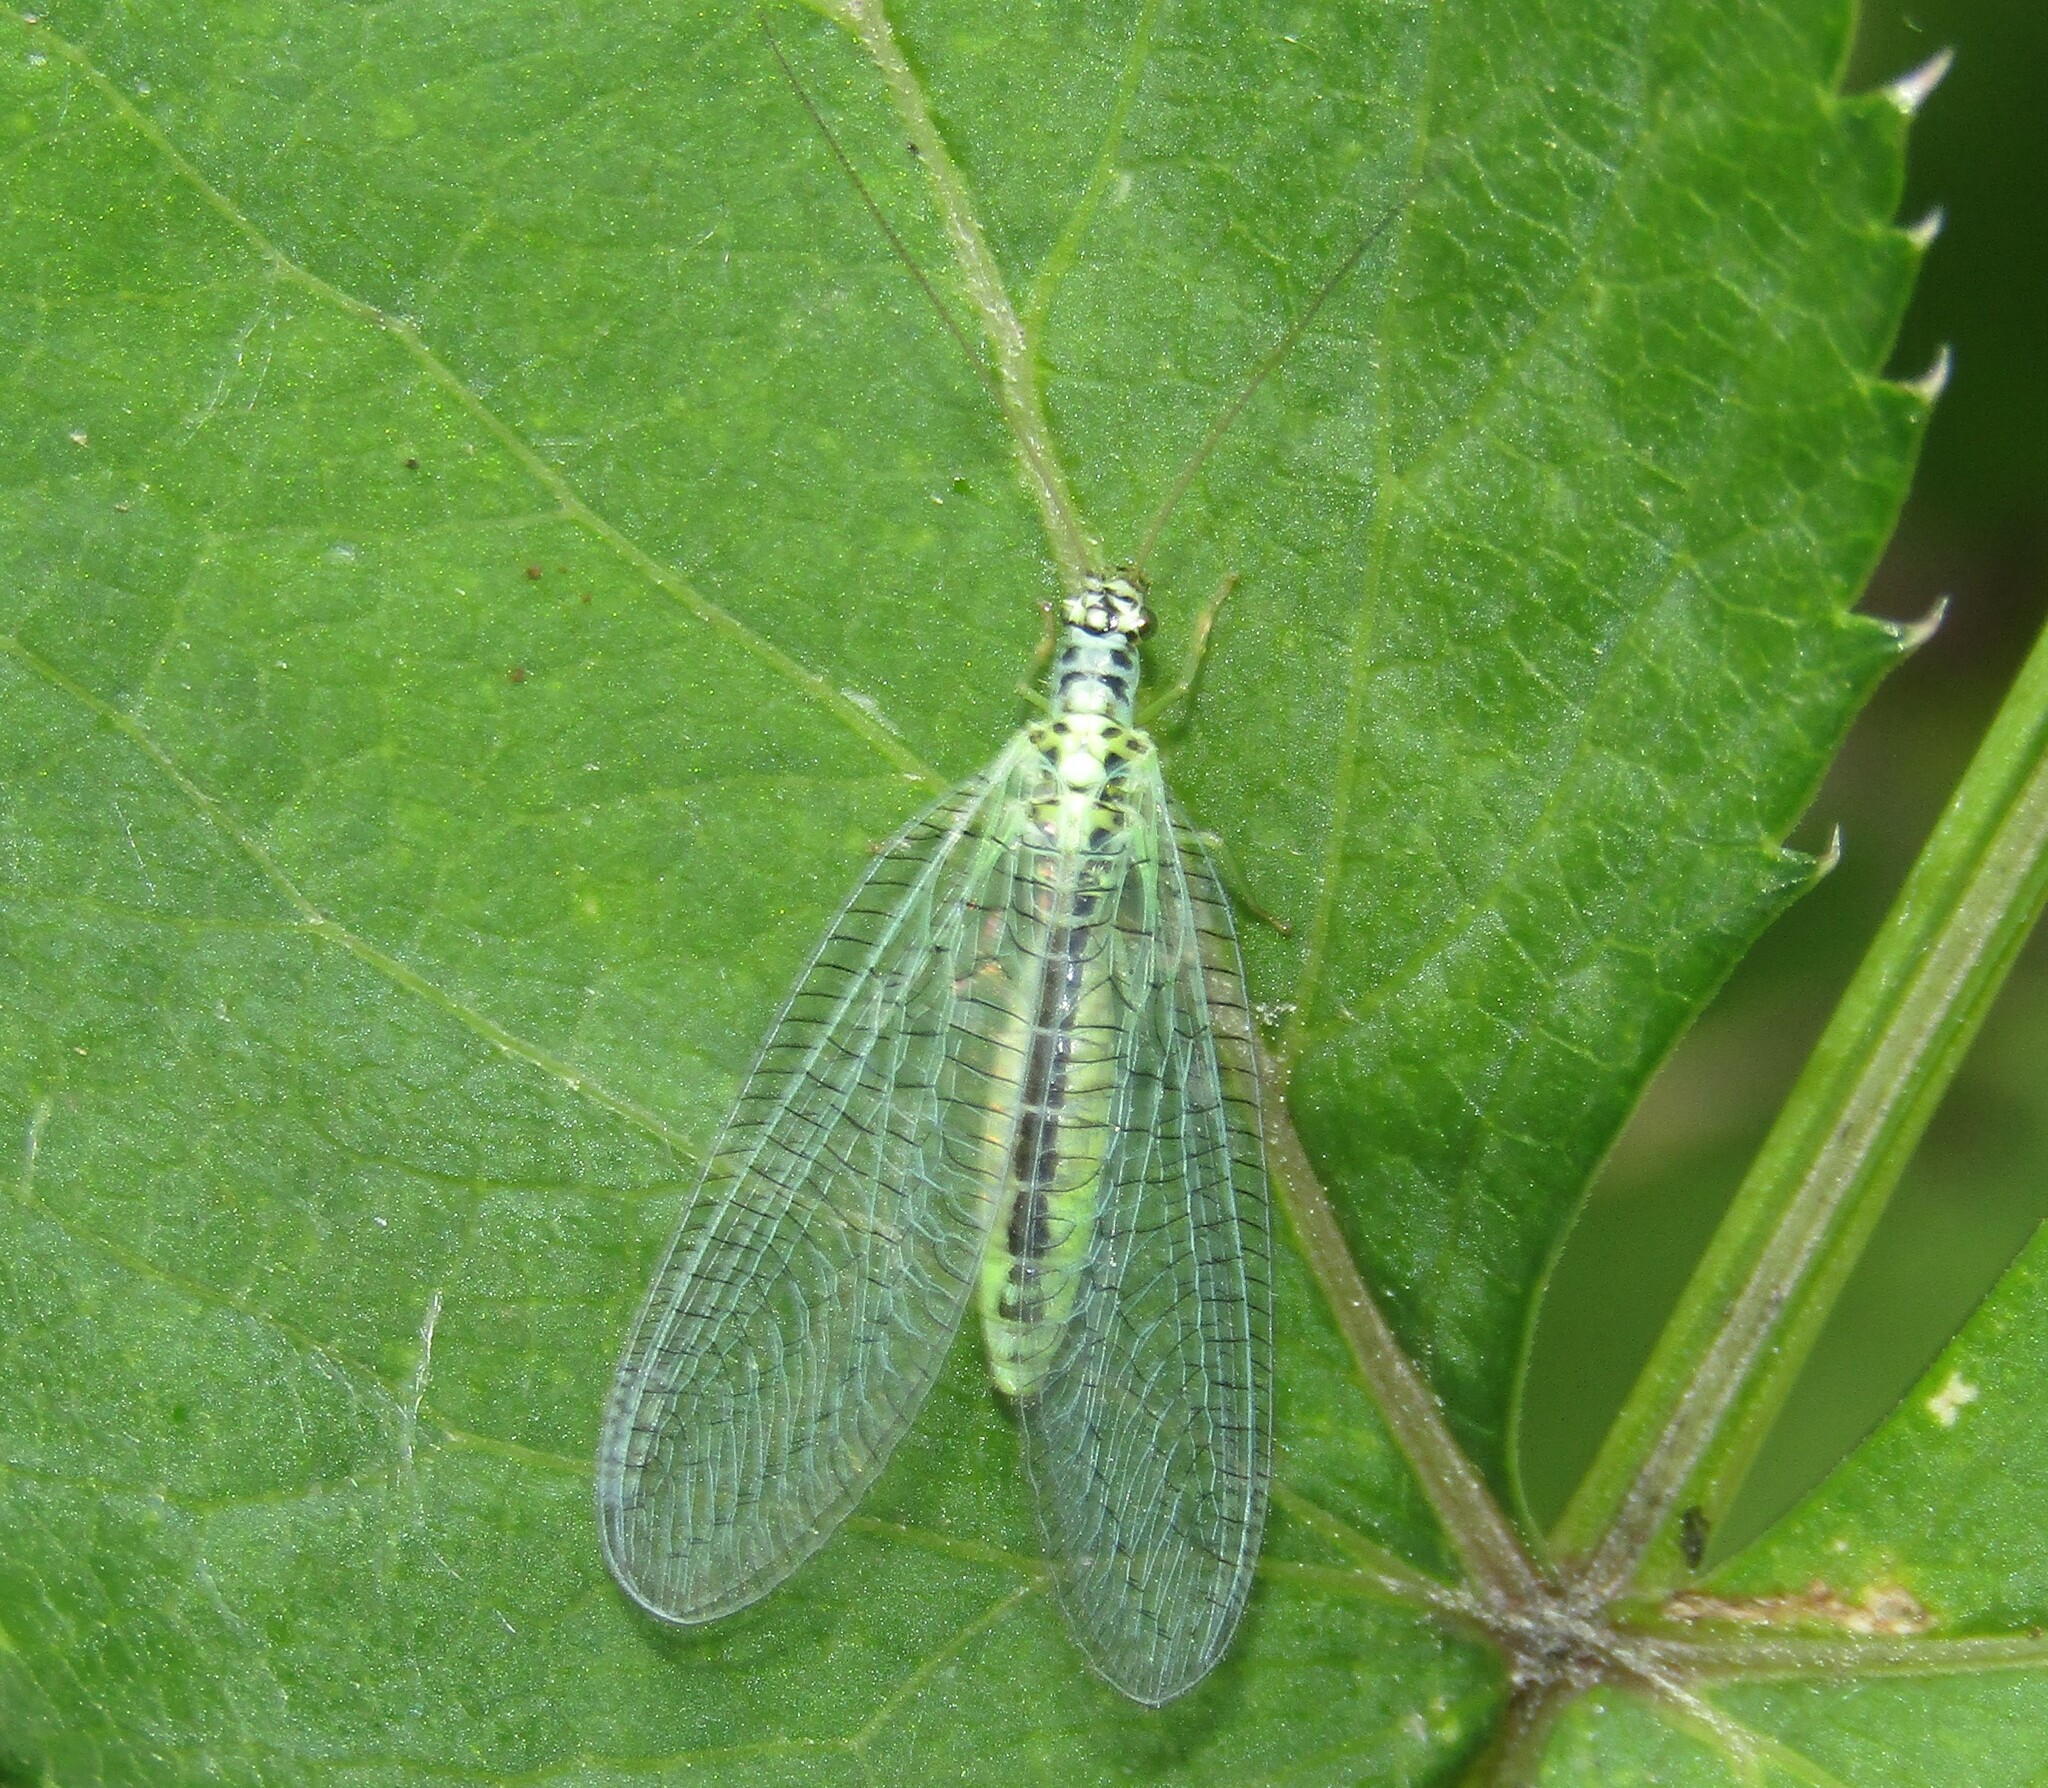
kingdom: Animalia
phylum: Arthropoda
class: Insecta
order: Neuroptera
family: Chrysopidae
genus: Chrysopa
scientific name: Chrysopa perla
